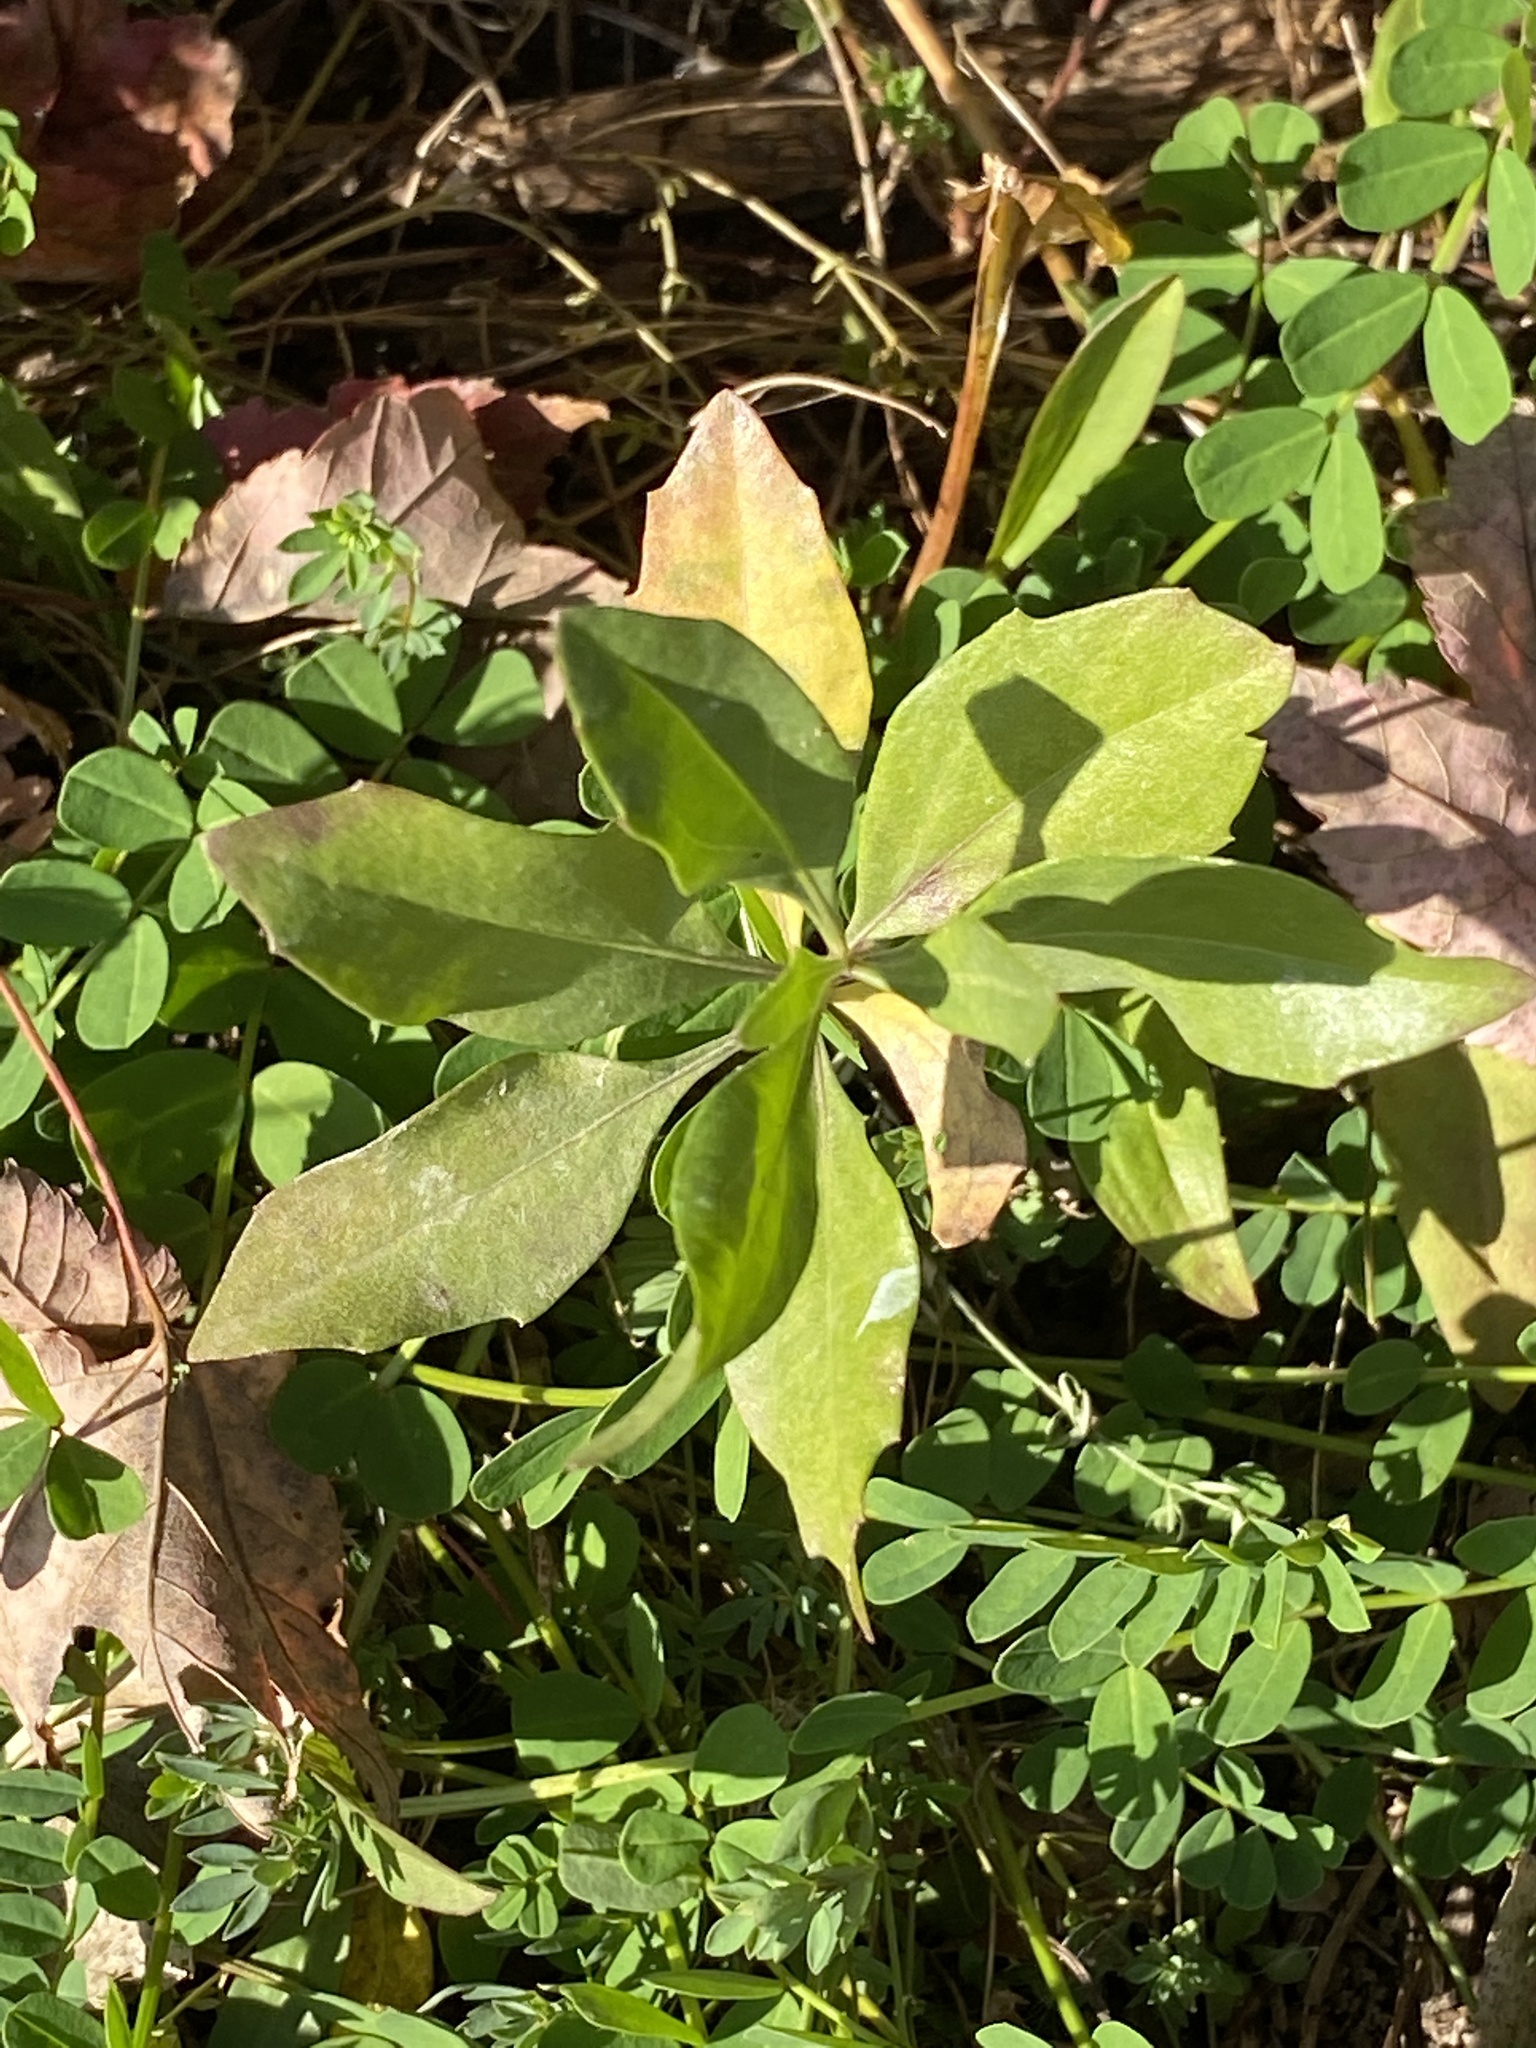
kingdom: Plantae
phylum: Tracheophyta
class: Magnoliopsida
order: Asterales
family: Asteraceae
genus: Baccharis
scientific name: Baccharis halimifolia
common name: Eastern baccharis
